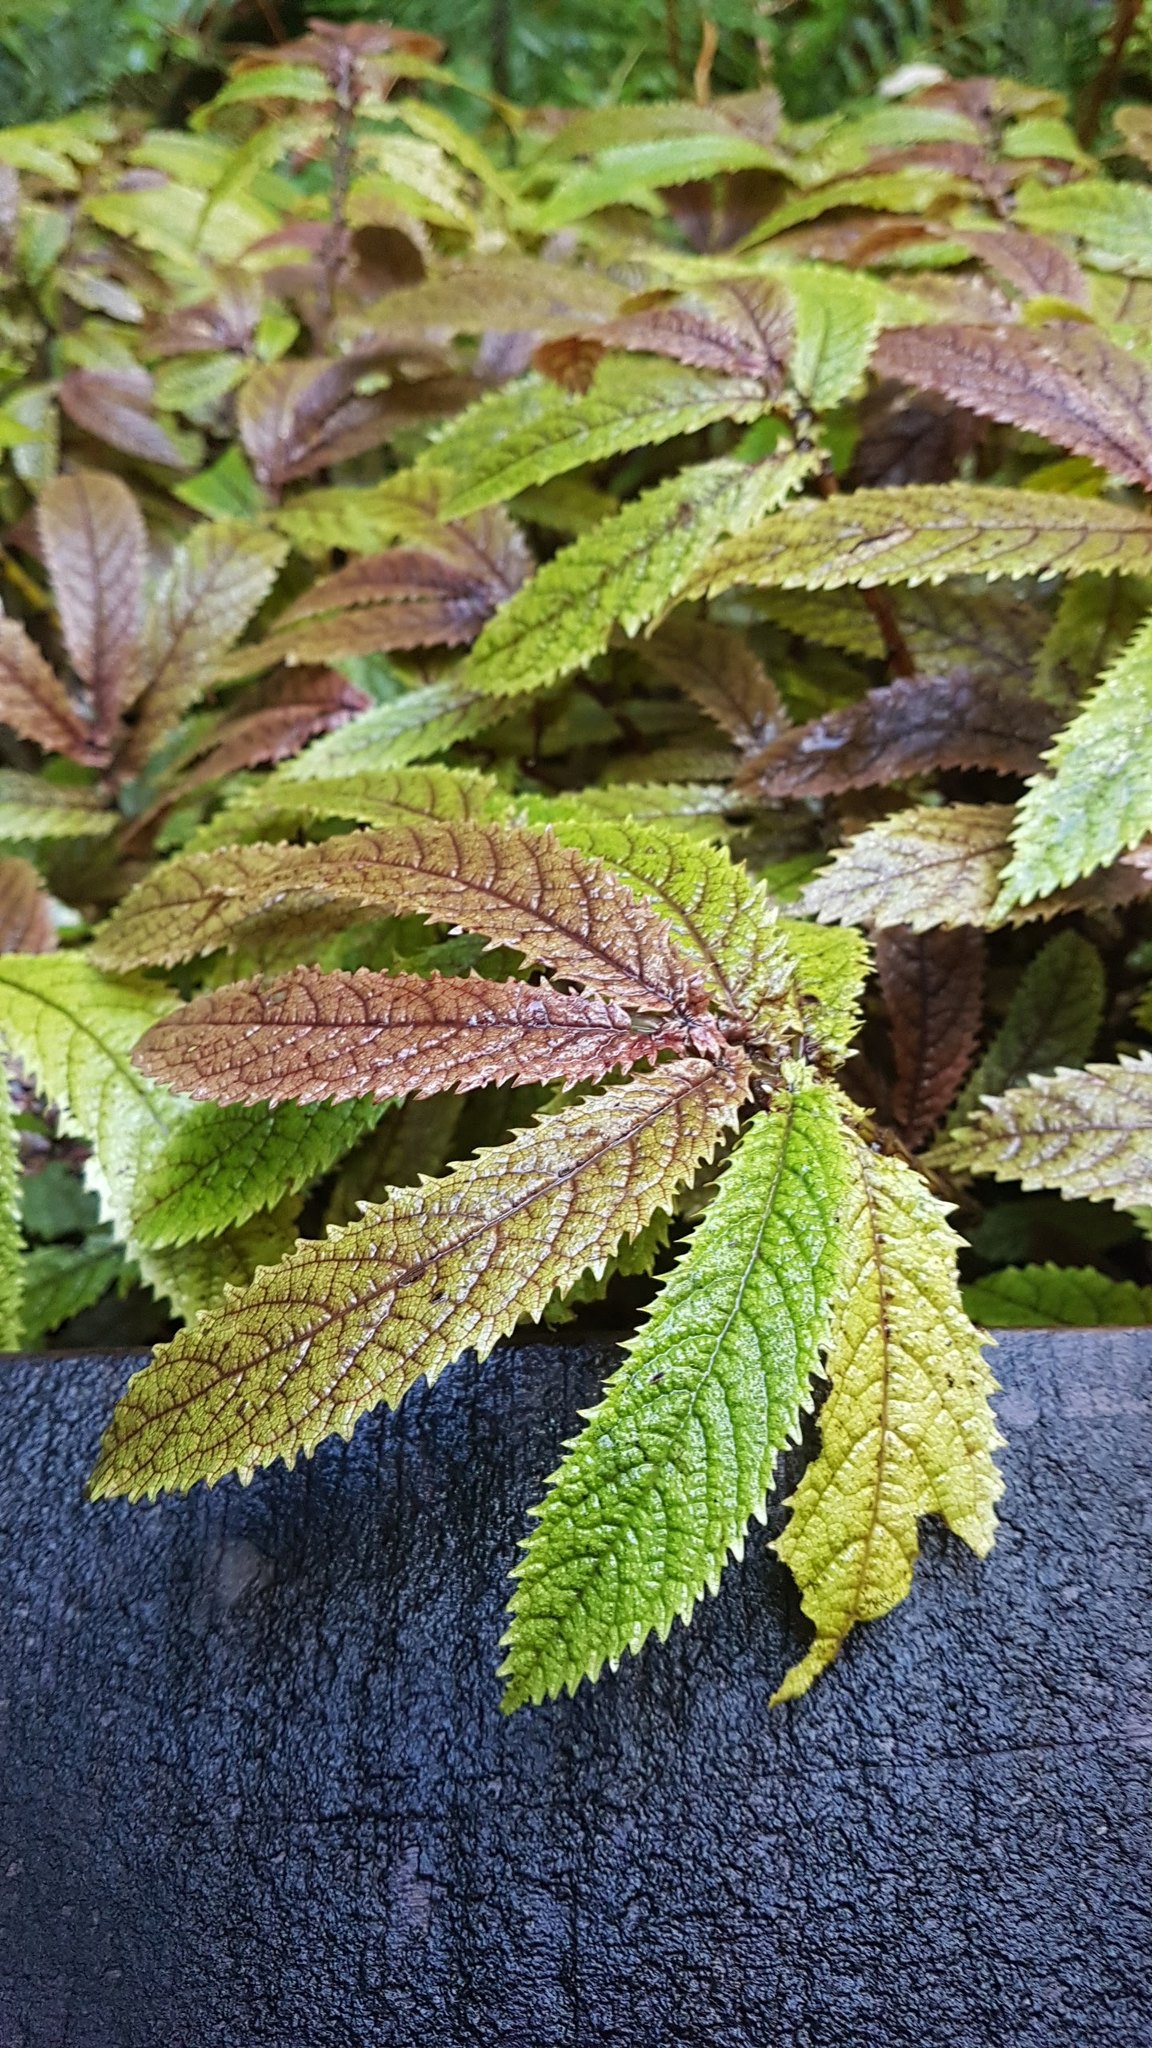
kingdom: Plantae
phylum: Tracheophyta
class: Magnoliopsida
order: Rosales
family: Urticaceae
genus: Elatostema
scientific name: Elatostema rugosum
